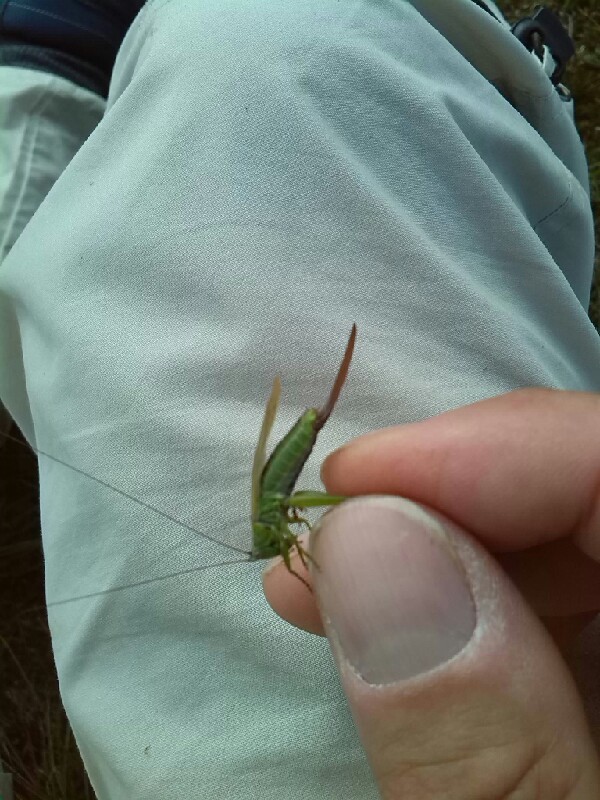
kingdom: Animalia
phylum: Arthropoda
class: Insecta
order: Orthoptera
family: Tettigoniidae
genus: Conocephalus
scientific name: Conocephalus fuscus
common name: Long-winged conehead
